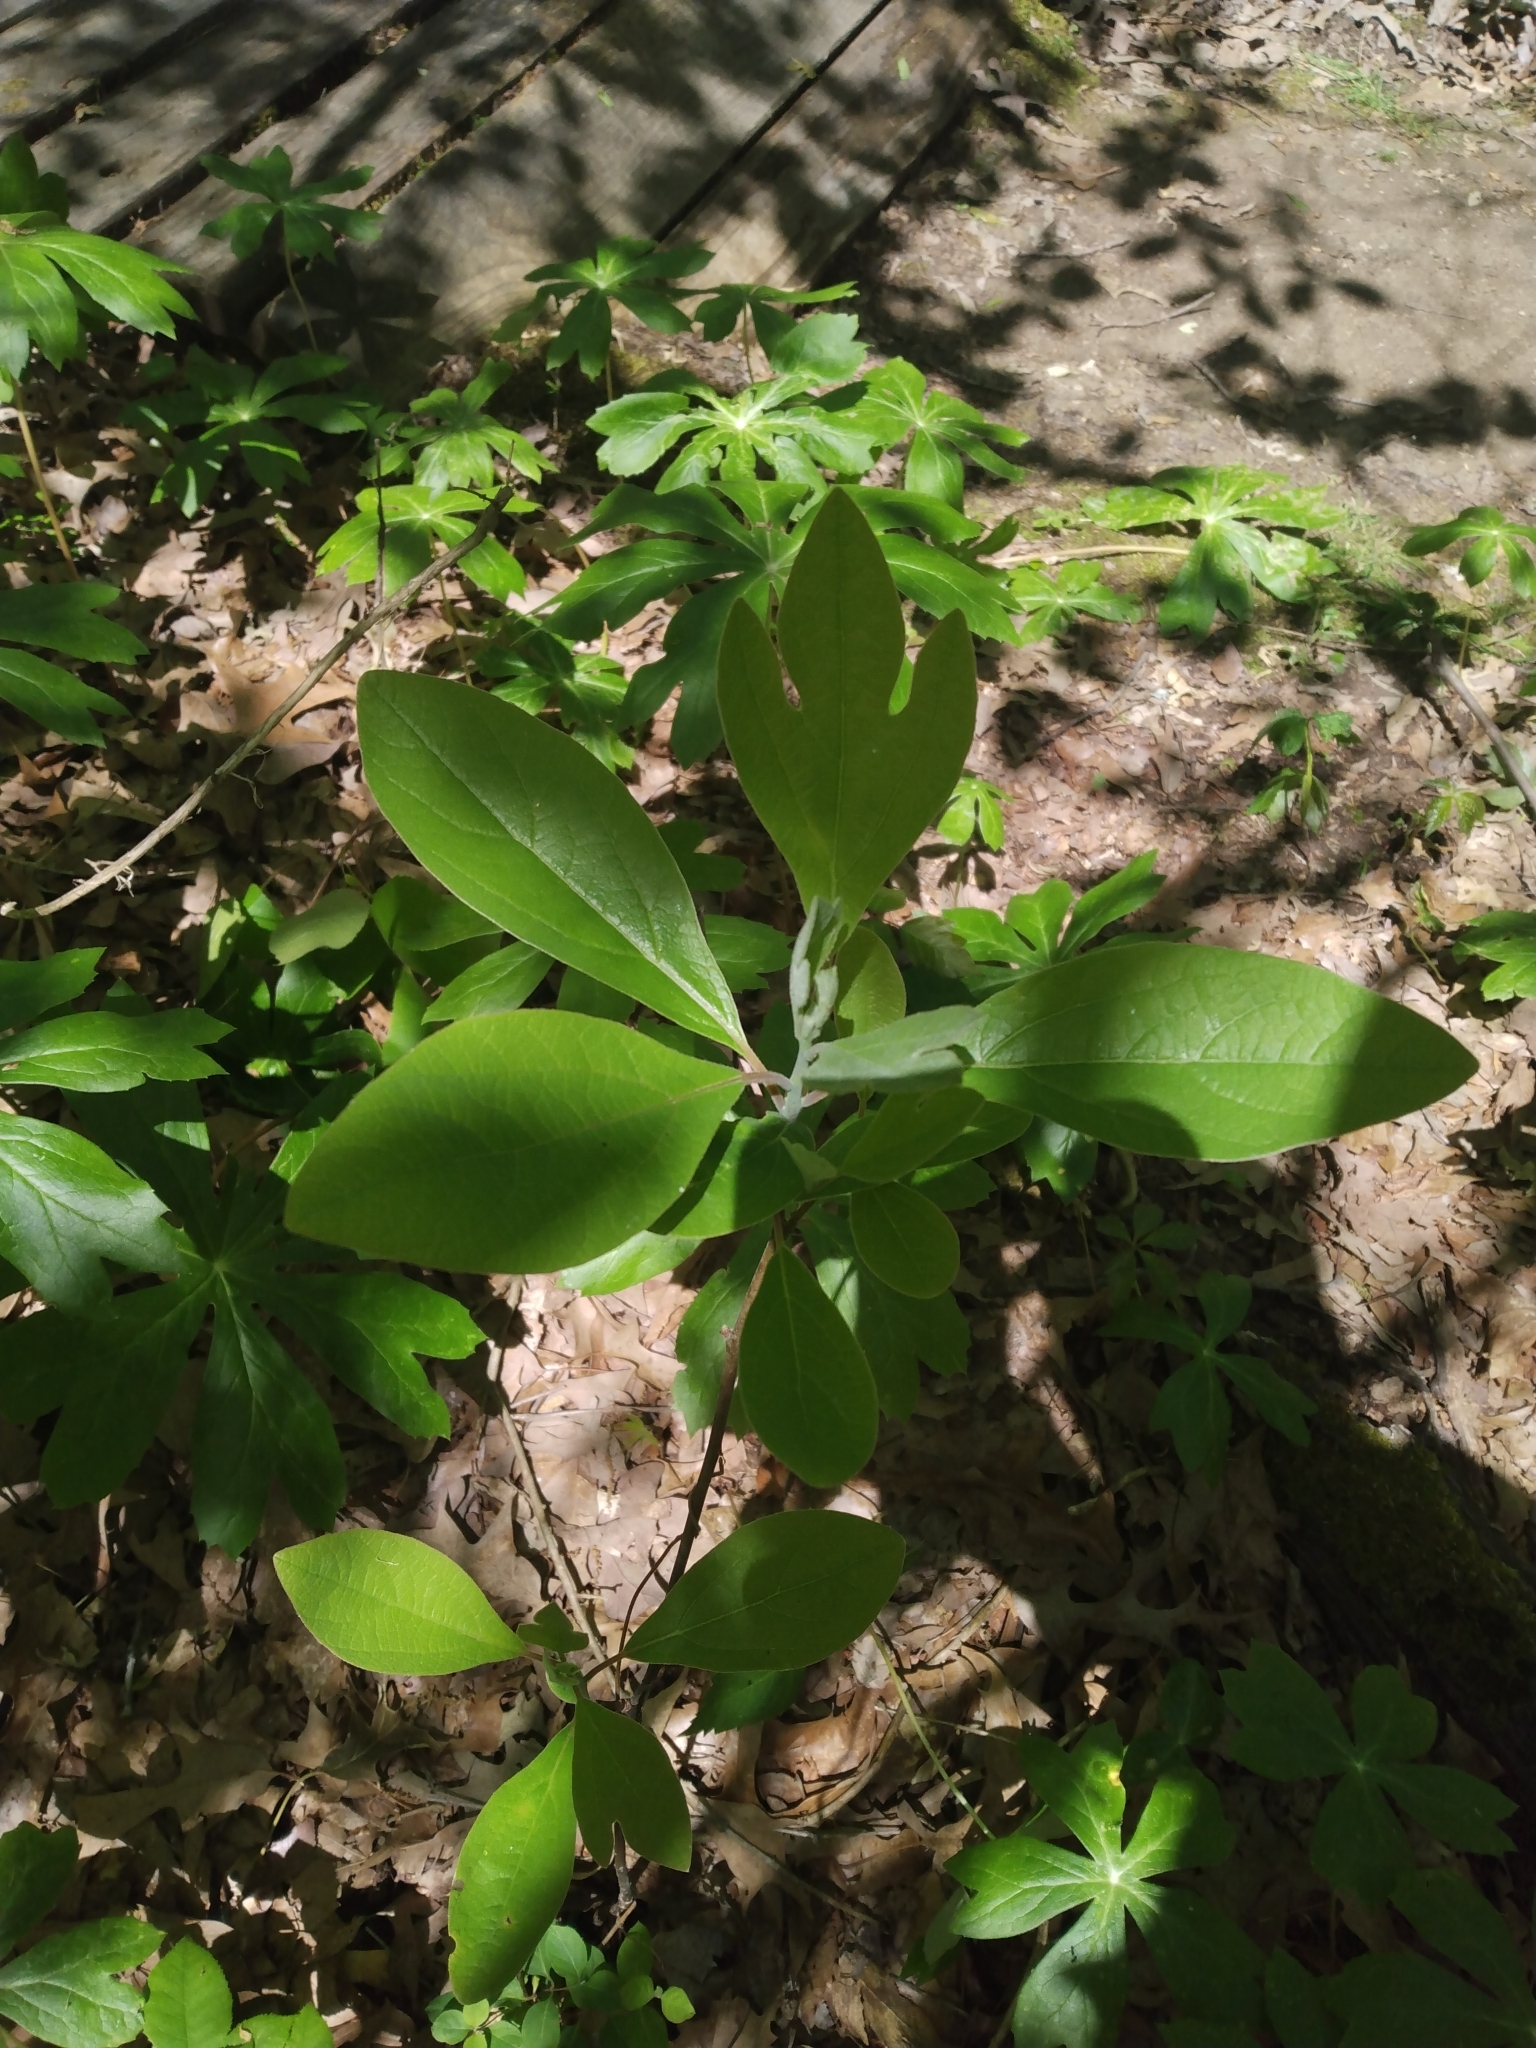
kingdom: Plantae
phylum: Tracheophyta
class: Magnoliopsida
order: Laurales
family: Lauraceae
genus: Sassafras
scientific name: Sassafras albidum
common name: Sassafras
